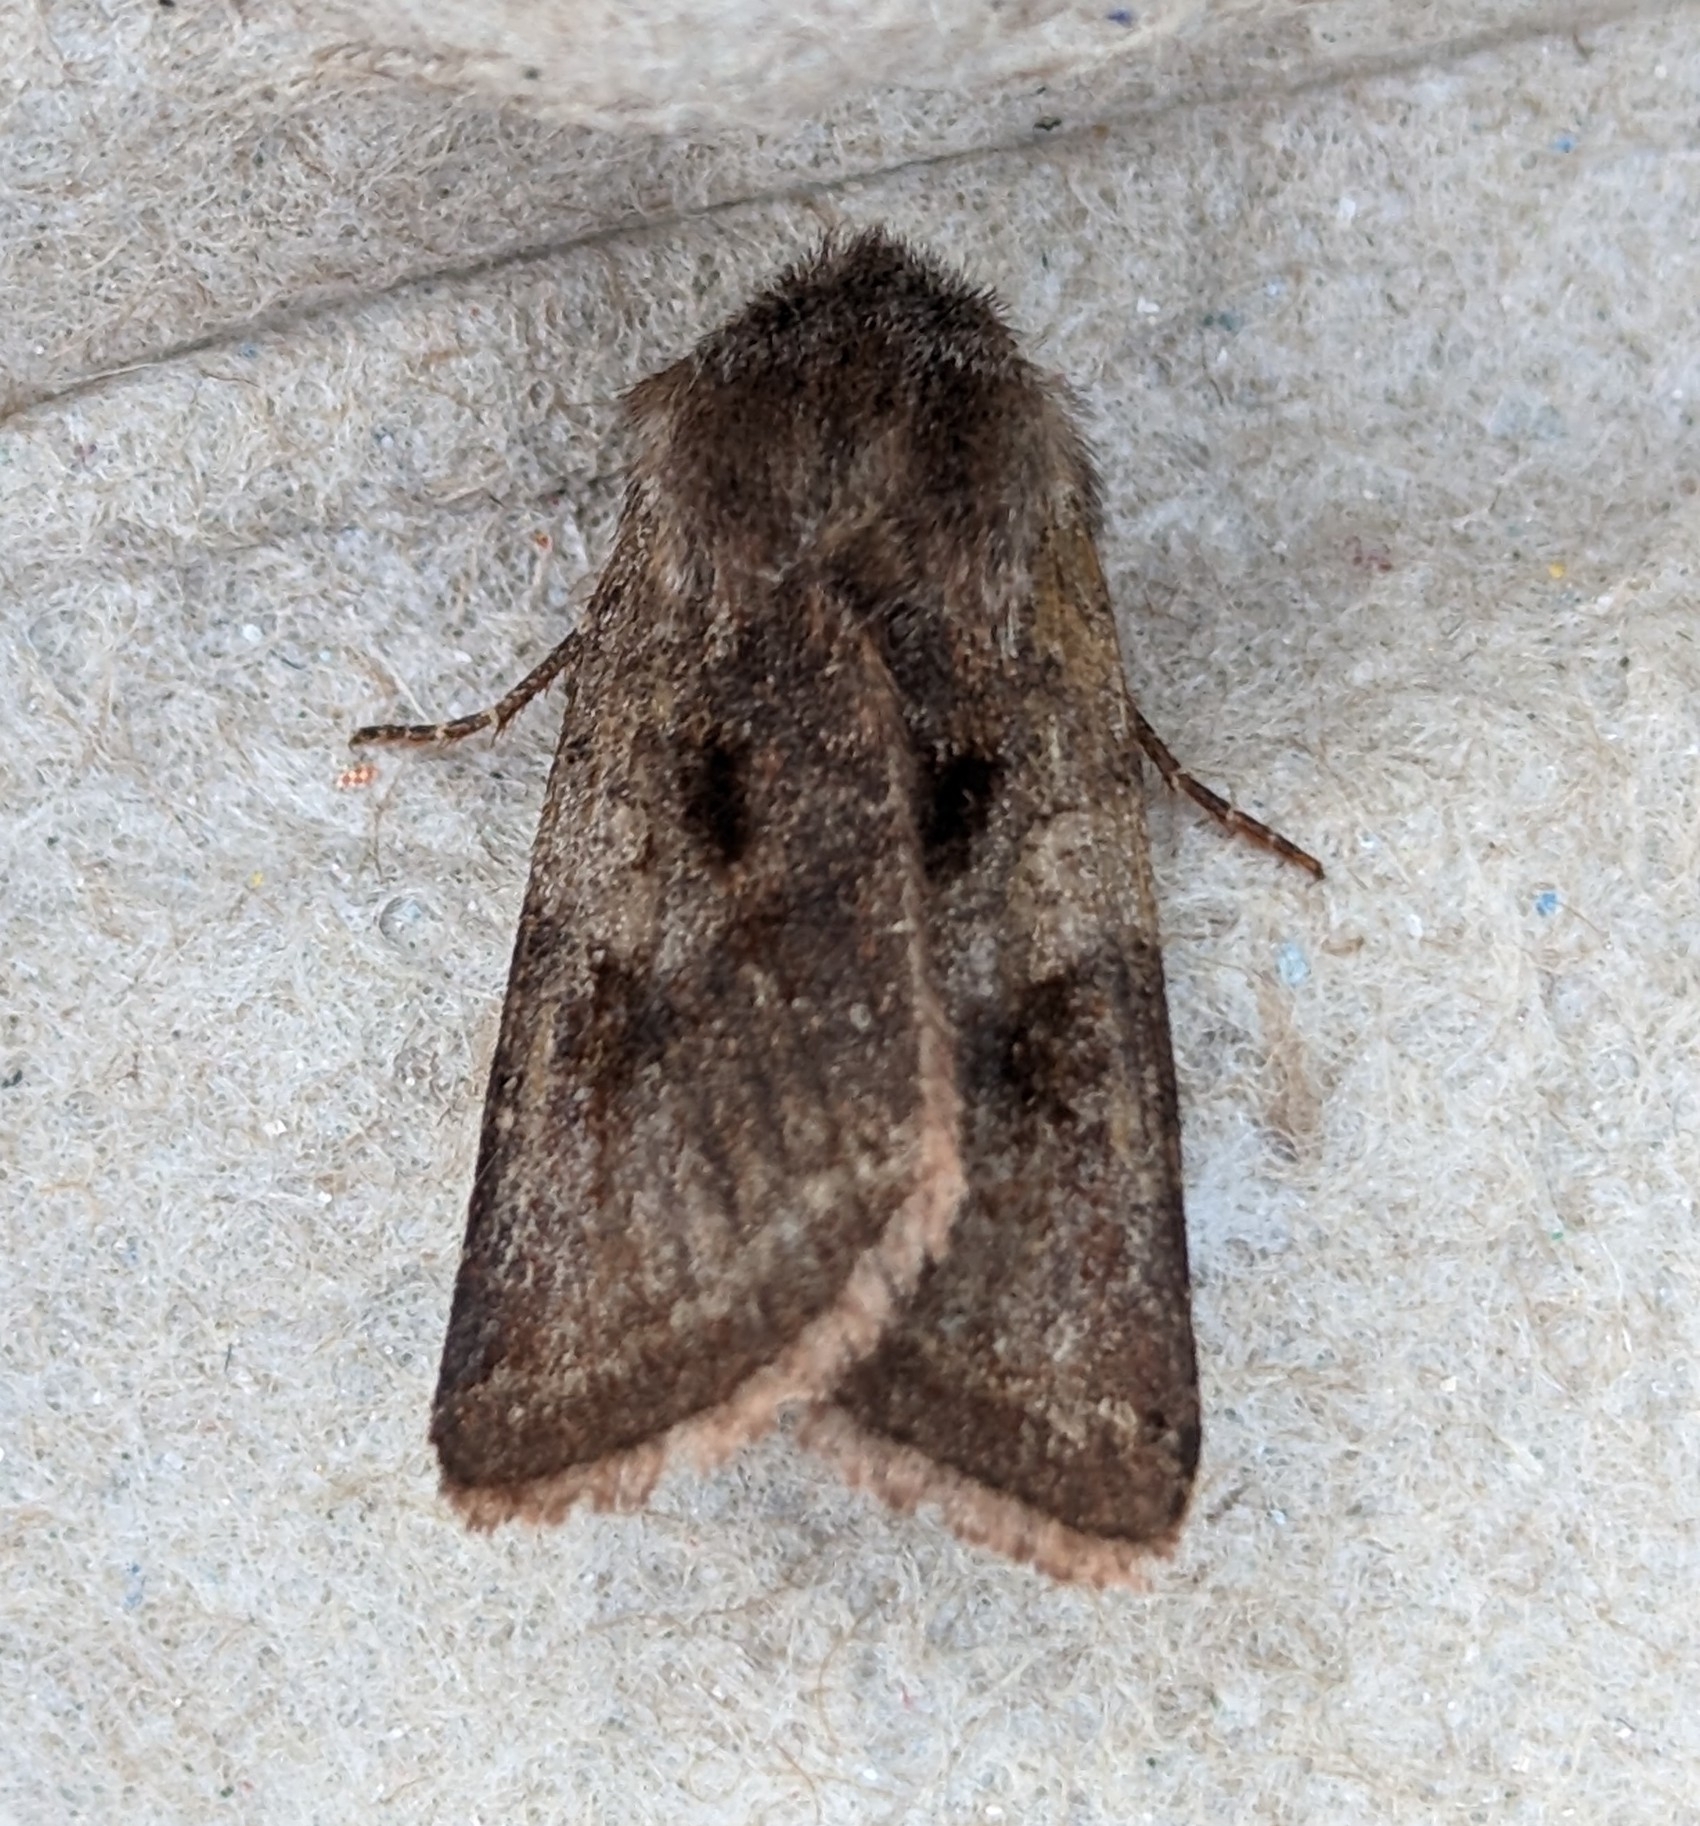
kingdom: Animalia
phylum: Arthropoda
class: Insecta
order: Lepidoptera
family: Noctuidae
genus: Cerastis
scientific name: Cerastis salicarum
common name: Willow dart
